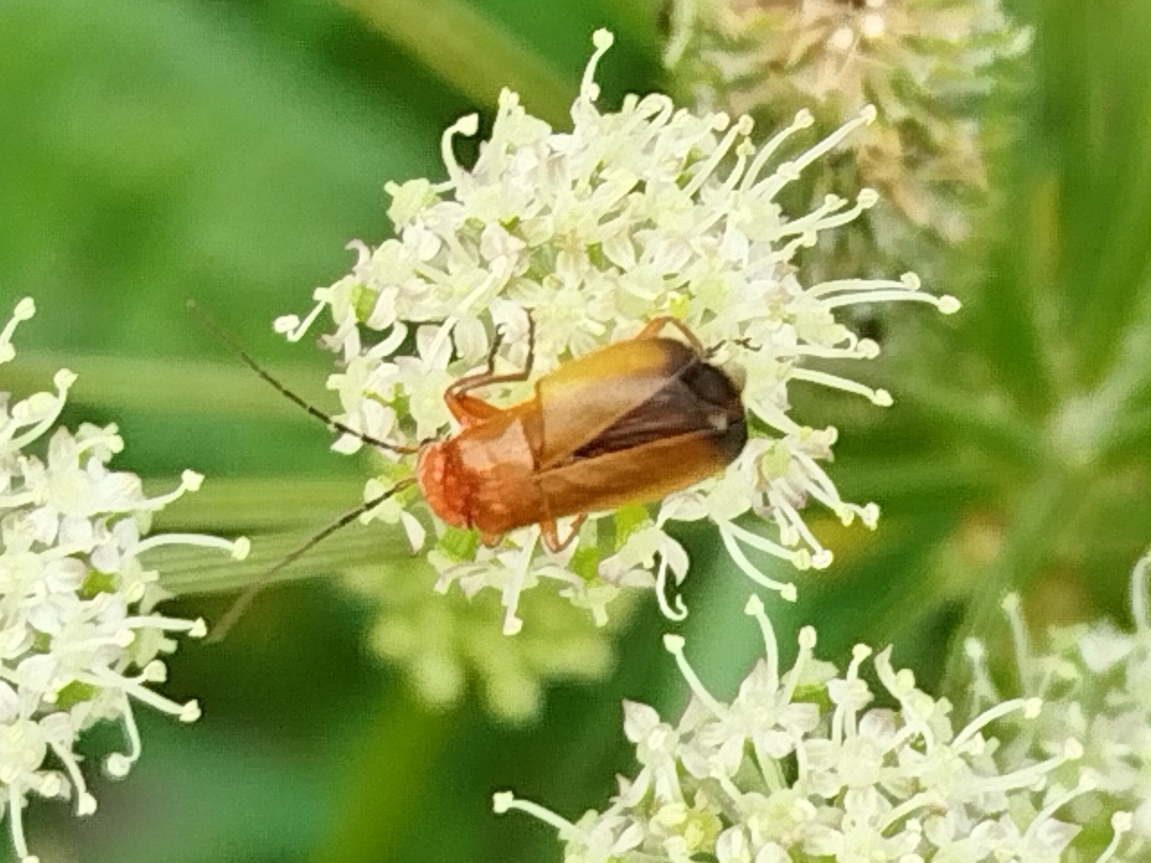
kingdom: Animalia
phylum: Arthropoda
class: Insecta
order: Coleoptera
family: Cantharidae
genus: Rhagonycha
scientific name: Rhagonycha fulva
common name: Common red soldier beetle
